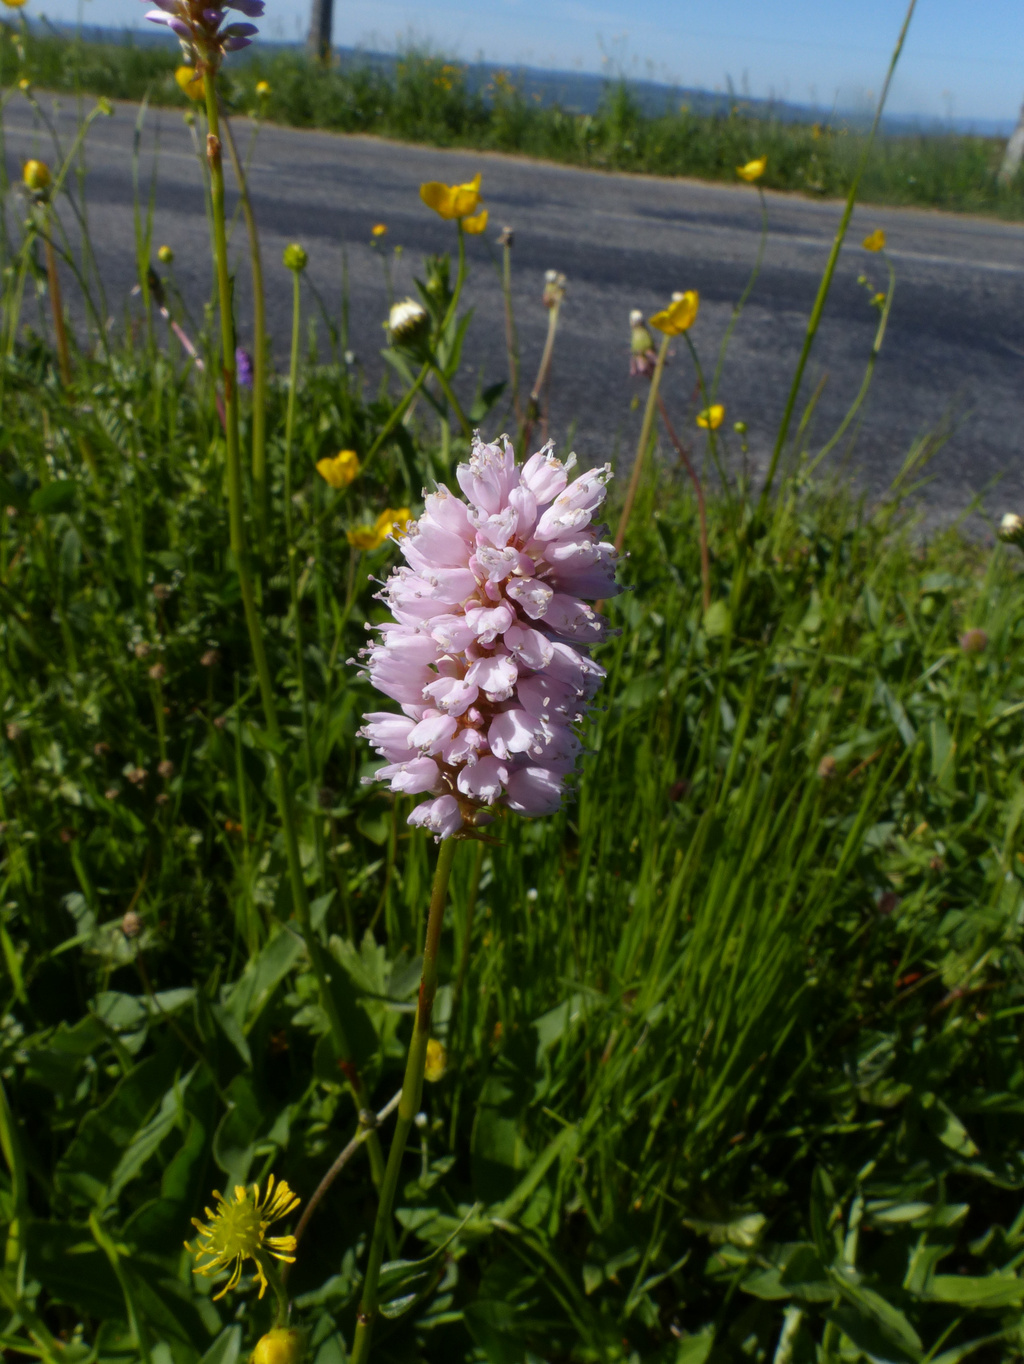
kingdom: Plantae
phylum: Tracheophyta
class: Magnoliopsida
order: Caryophyllales
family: Polygonaceae
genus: Bistorta
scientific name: Bistorta officinalis
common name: Common bistort
